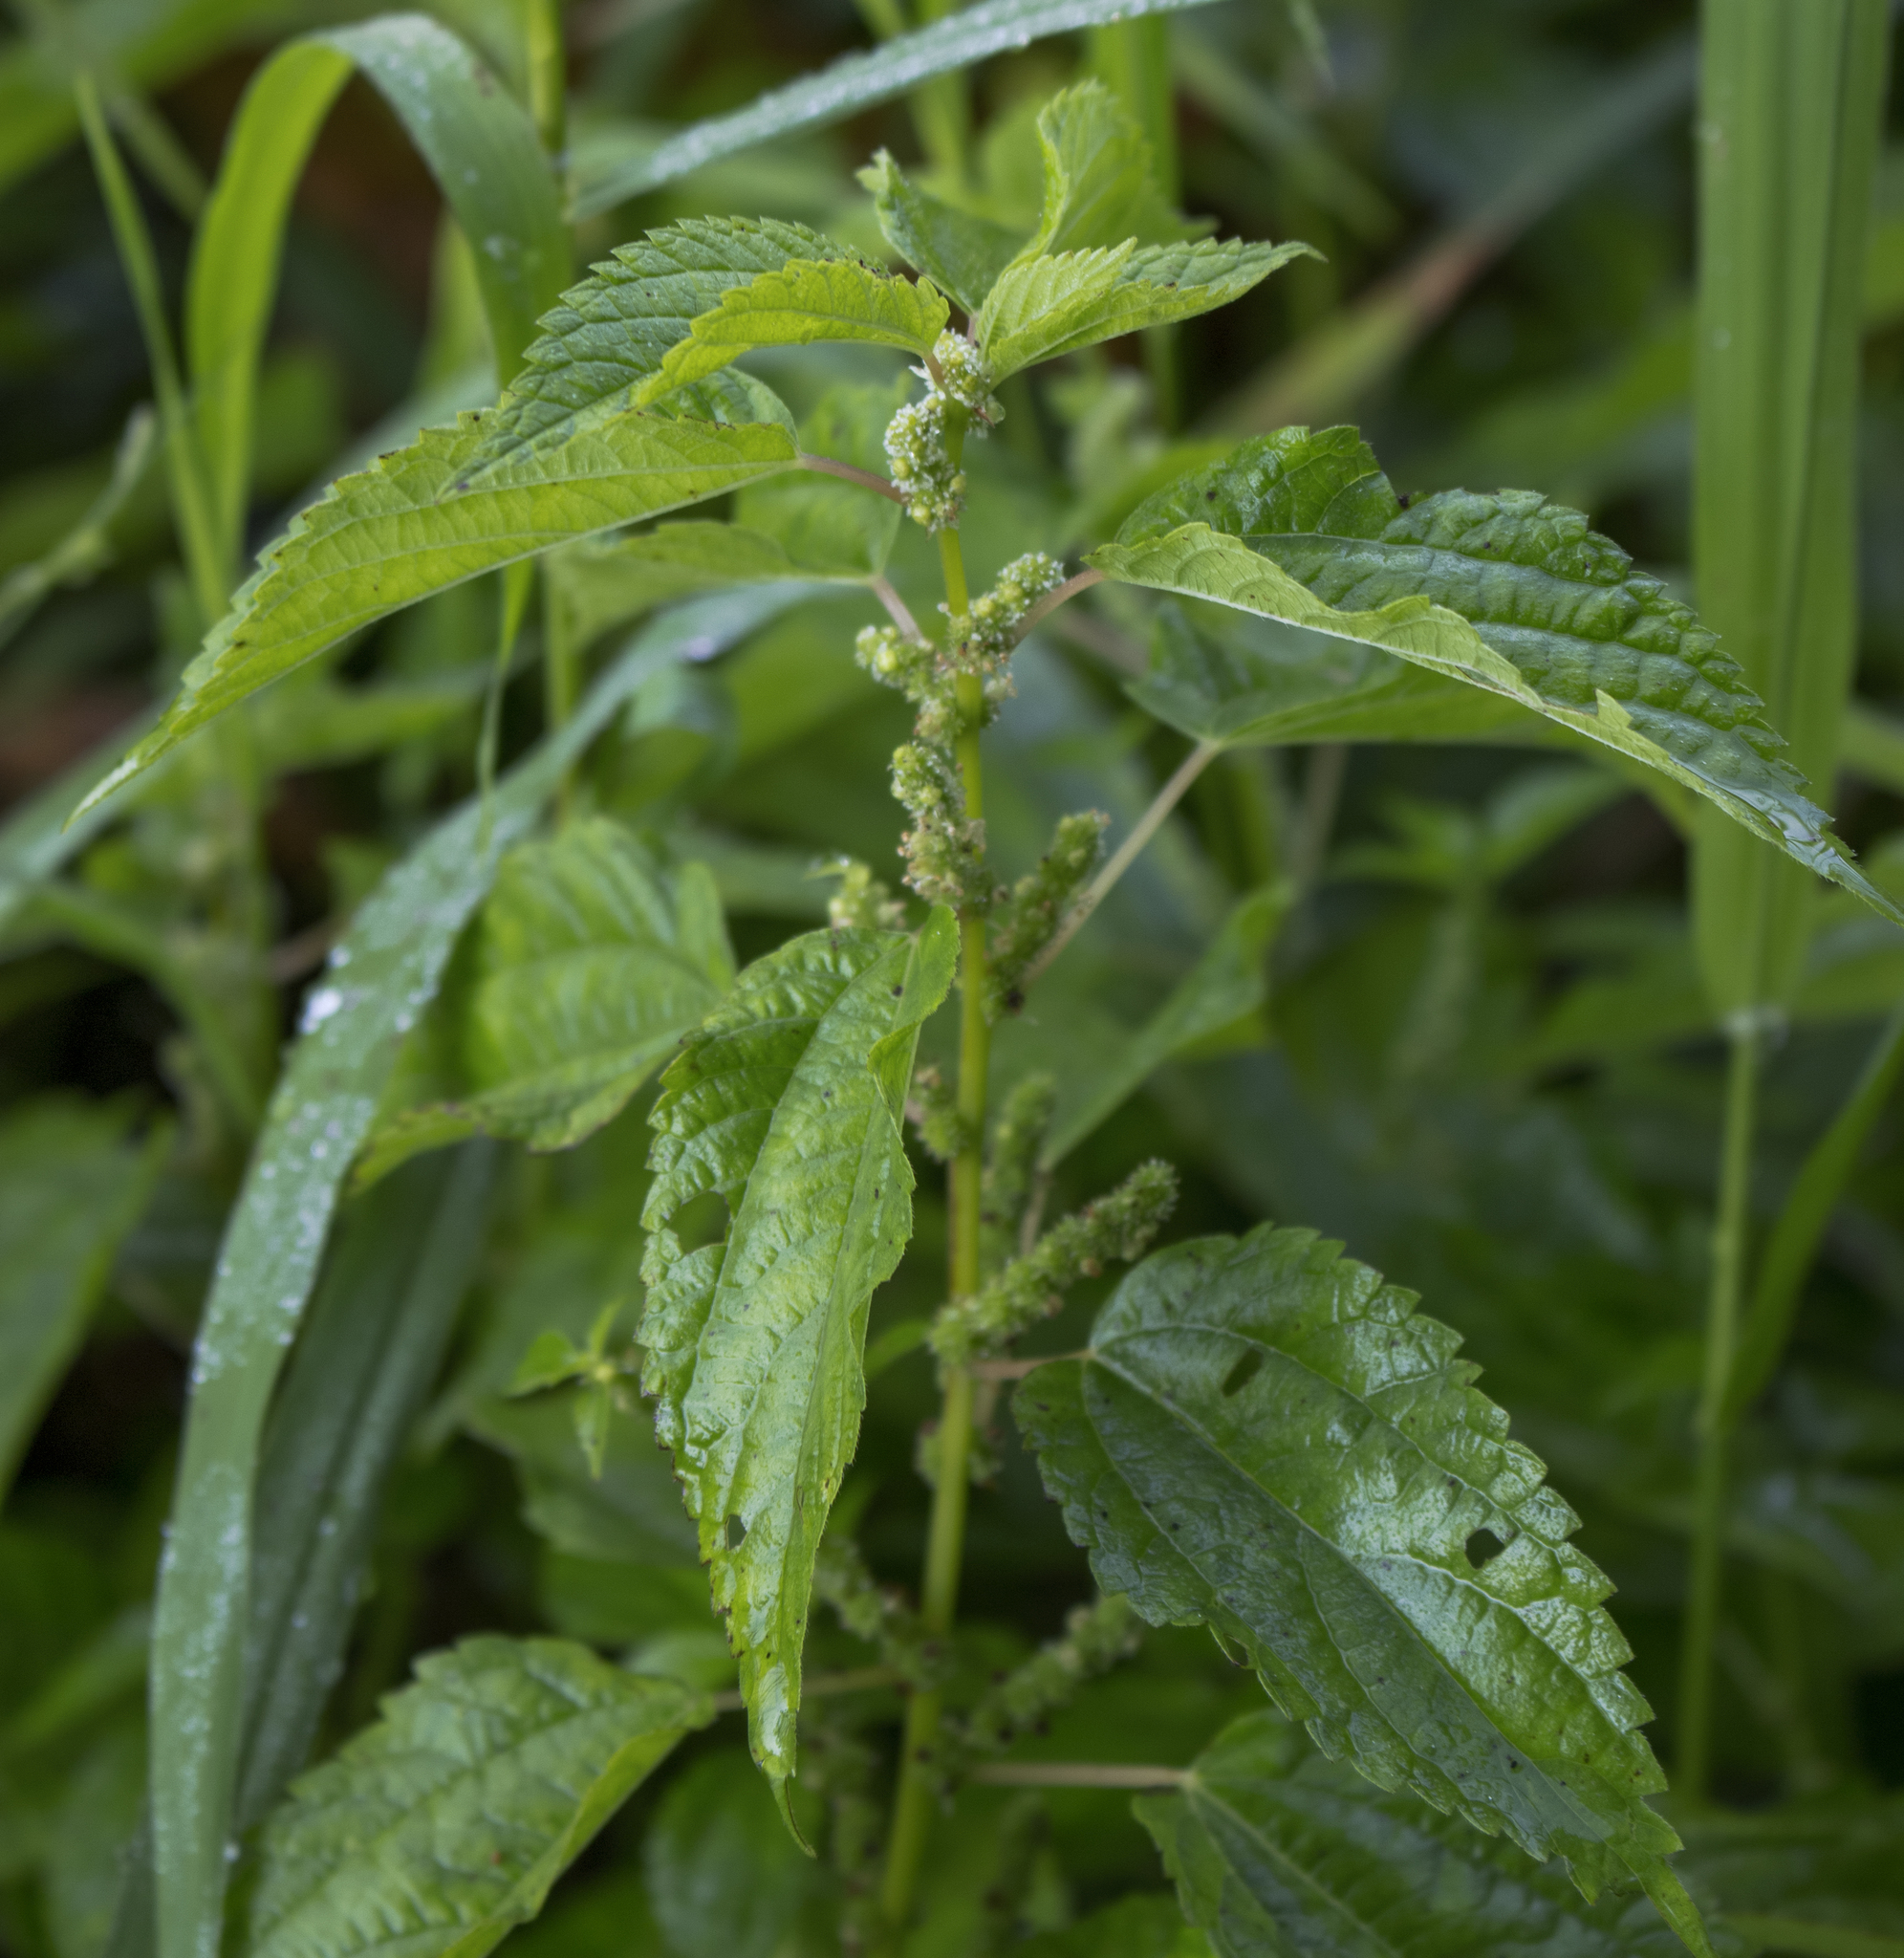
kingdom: Plantae
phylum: Tracheophyta
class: Magnoliopsida
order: Rosales
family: Urticaceae
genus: Boehmeria
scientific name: Boehmeria cylindrica
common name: Bog-hemp
